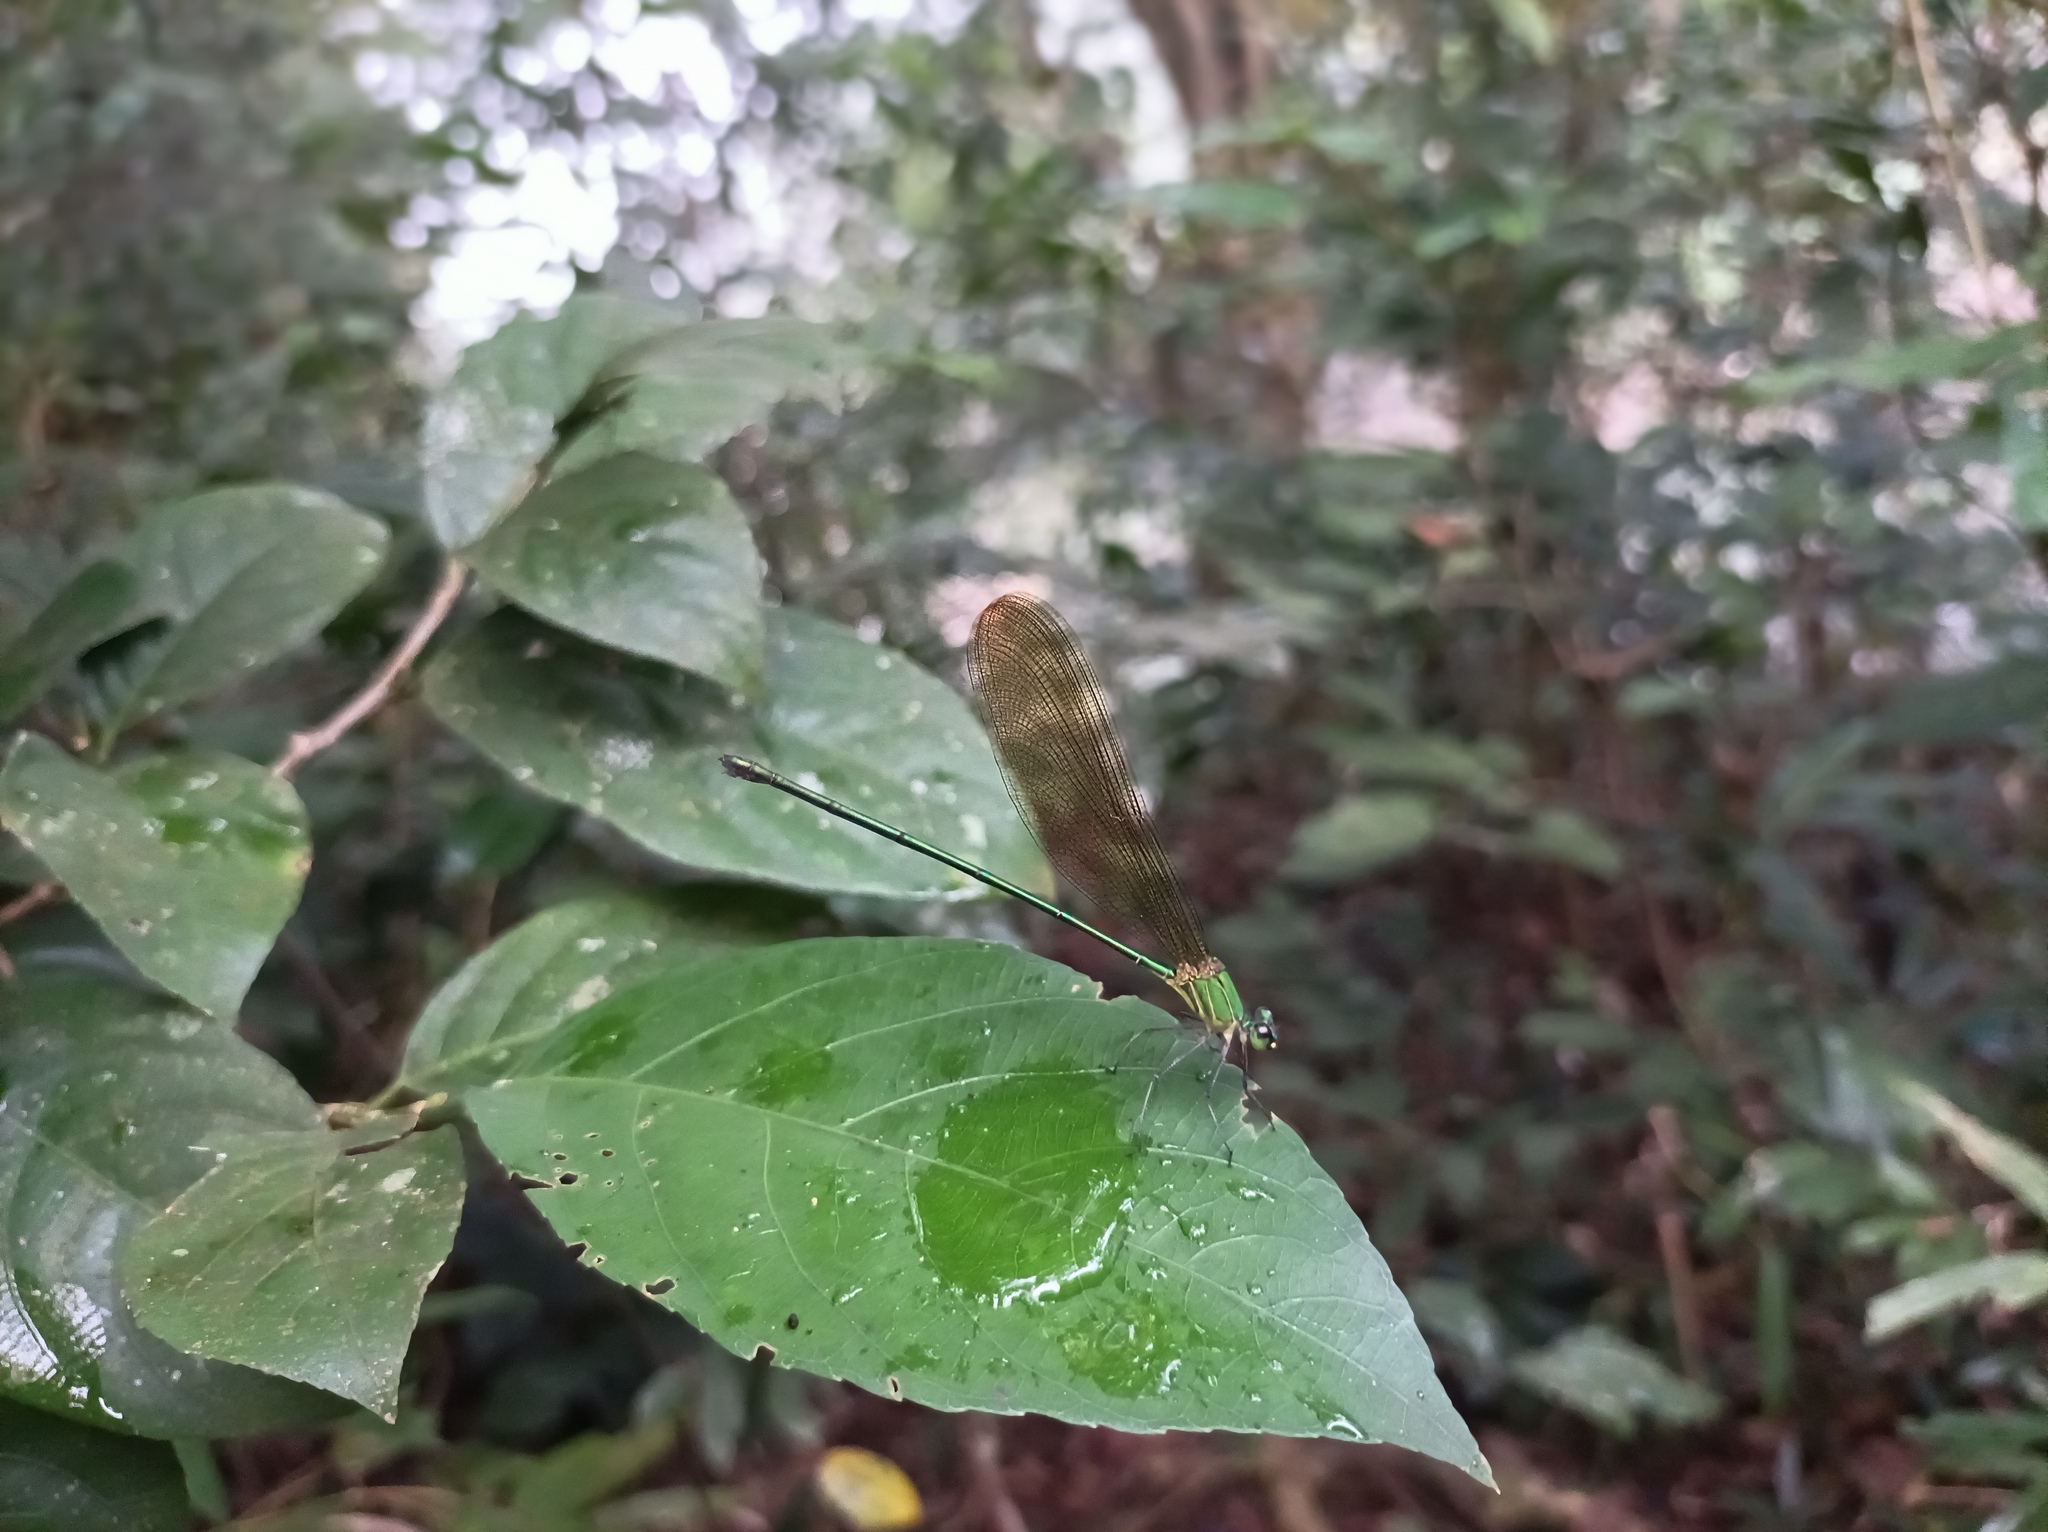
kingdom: Animalia
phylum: Arthropoda
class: Insecta
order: Odonata
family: Calopterygidae
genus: Vestalis
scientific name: Vestalis gracilis
